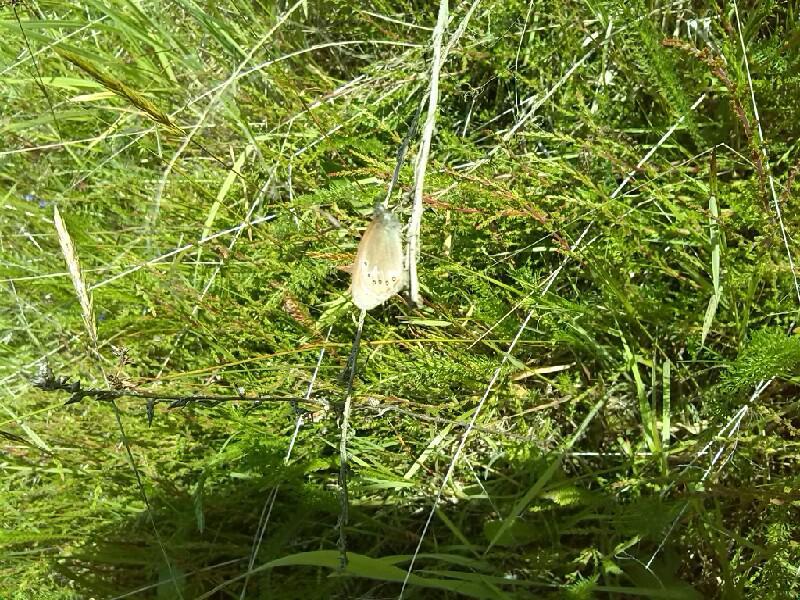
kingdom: Animalia
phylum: Arthropoda
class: Insecta
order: Lepidoptera
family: Nymphalidae
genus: Coenonympha
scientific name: Coenonympha iphis
